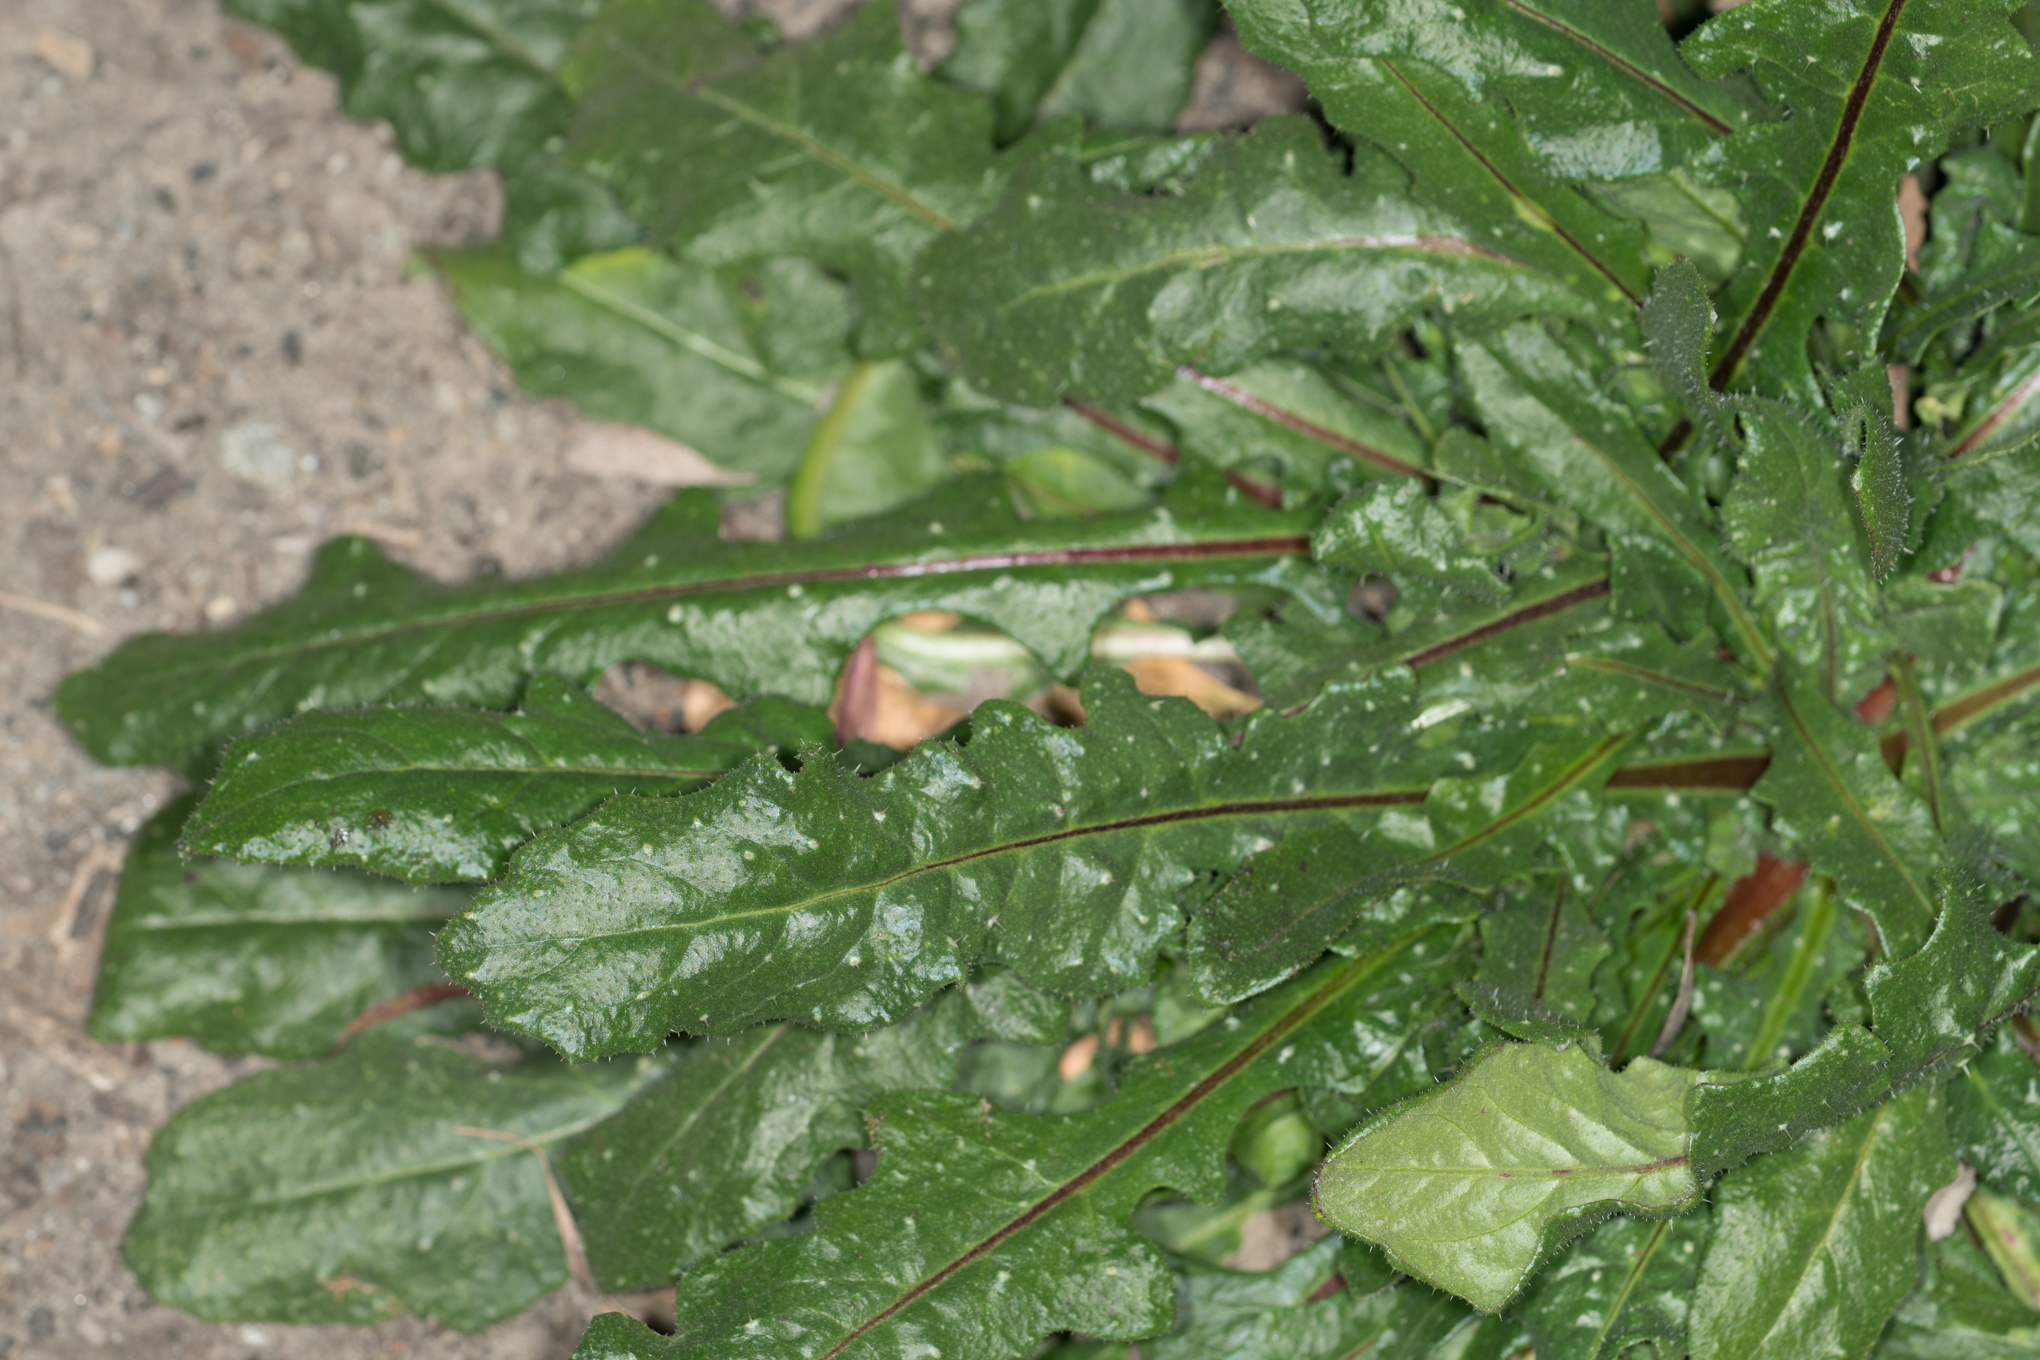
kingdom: Plantae
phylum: Tracheophyta
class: Magnoliopsida
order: Asterales
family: Asteraceae
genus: Helminthotheca
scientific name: Helminthotheca echioides
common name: Ox-tongue
